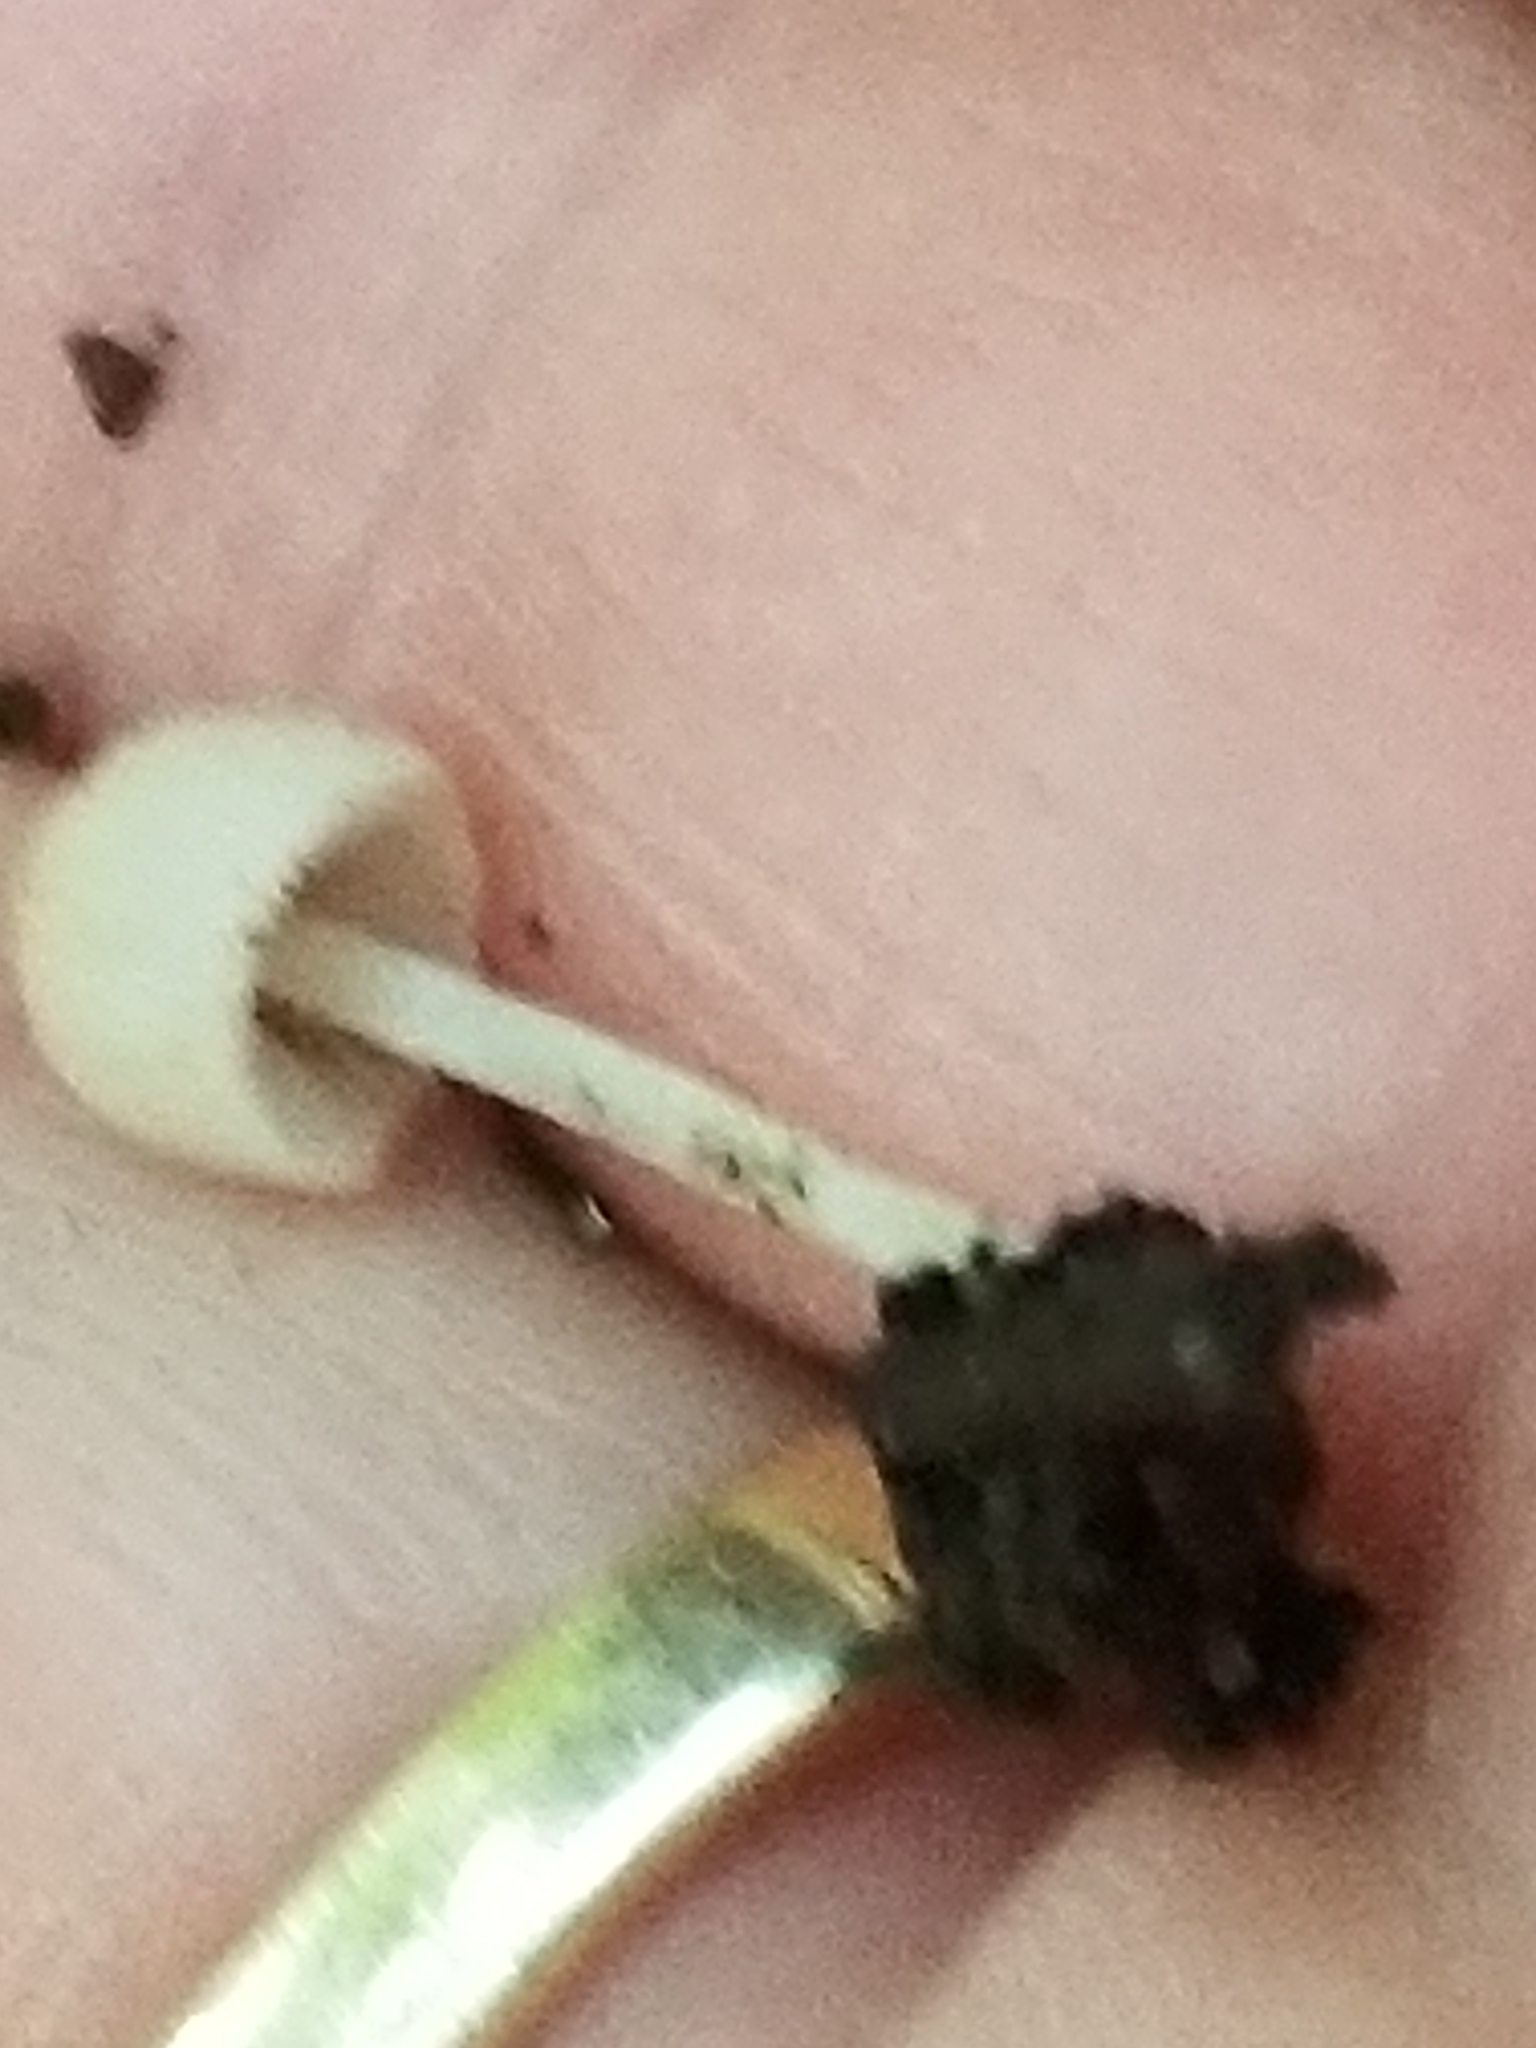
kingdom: Fungi
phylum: Basidiomycota
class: Agaricomycetes
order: Agaricales
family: Psathyrellaceae
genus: Coprinellus
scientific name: Coprinellus disseminatus
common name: Fairies' bonnets
